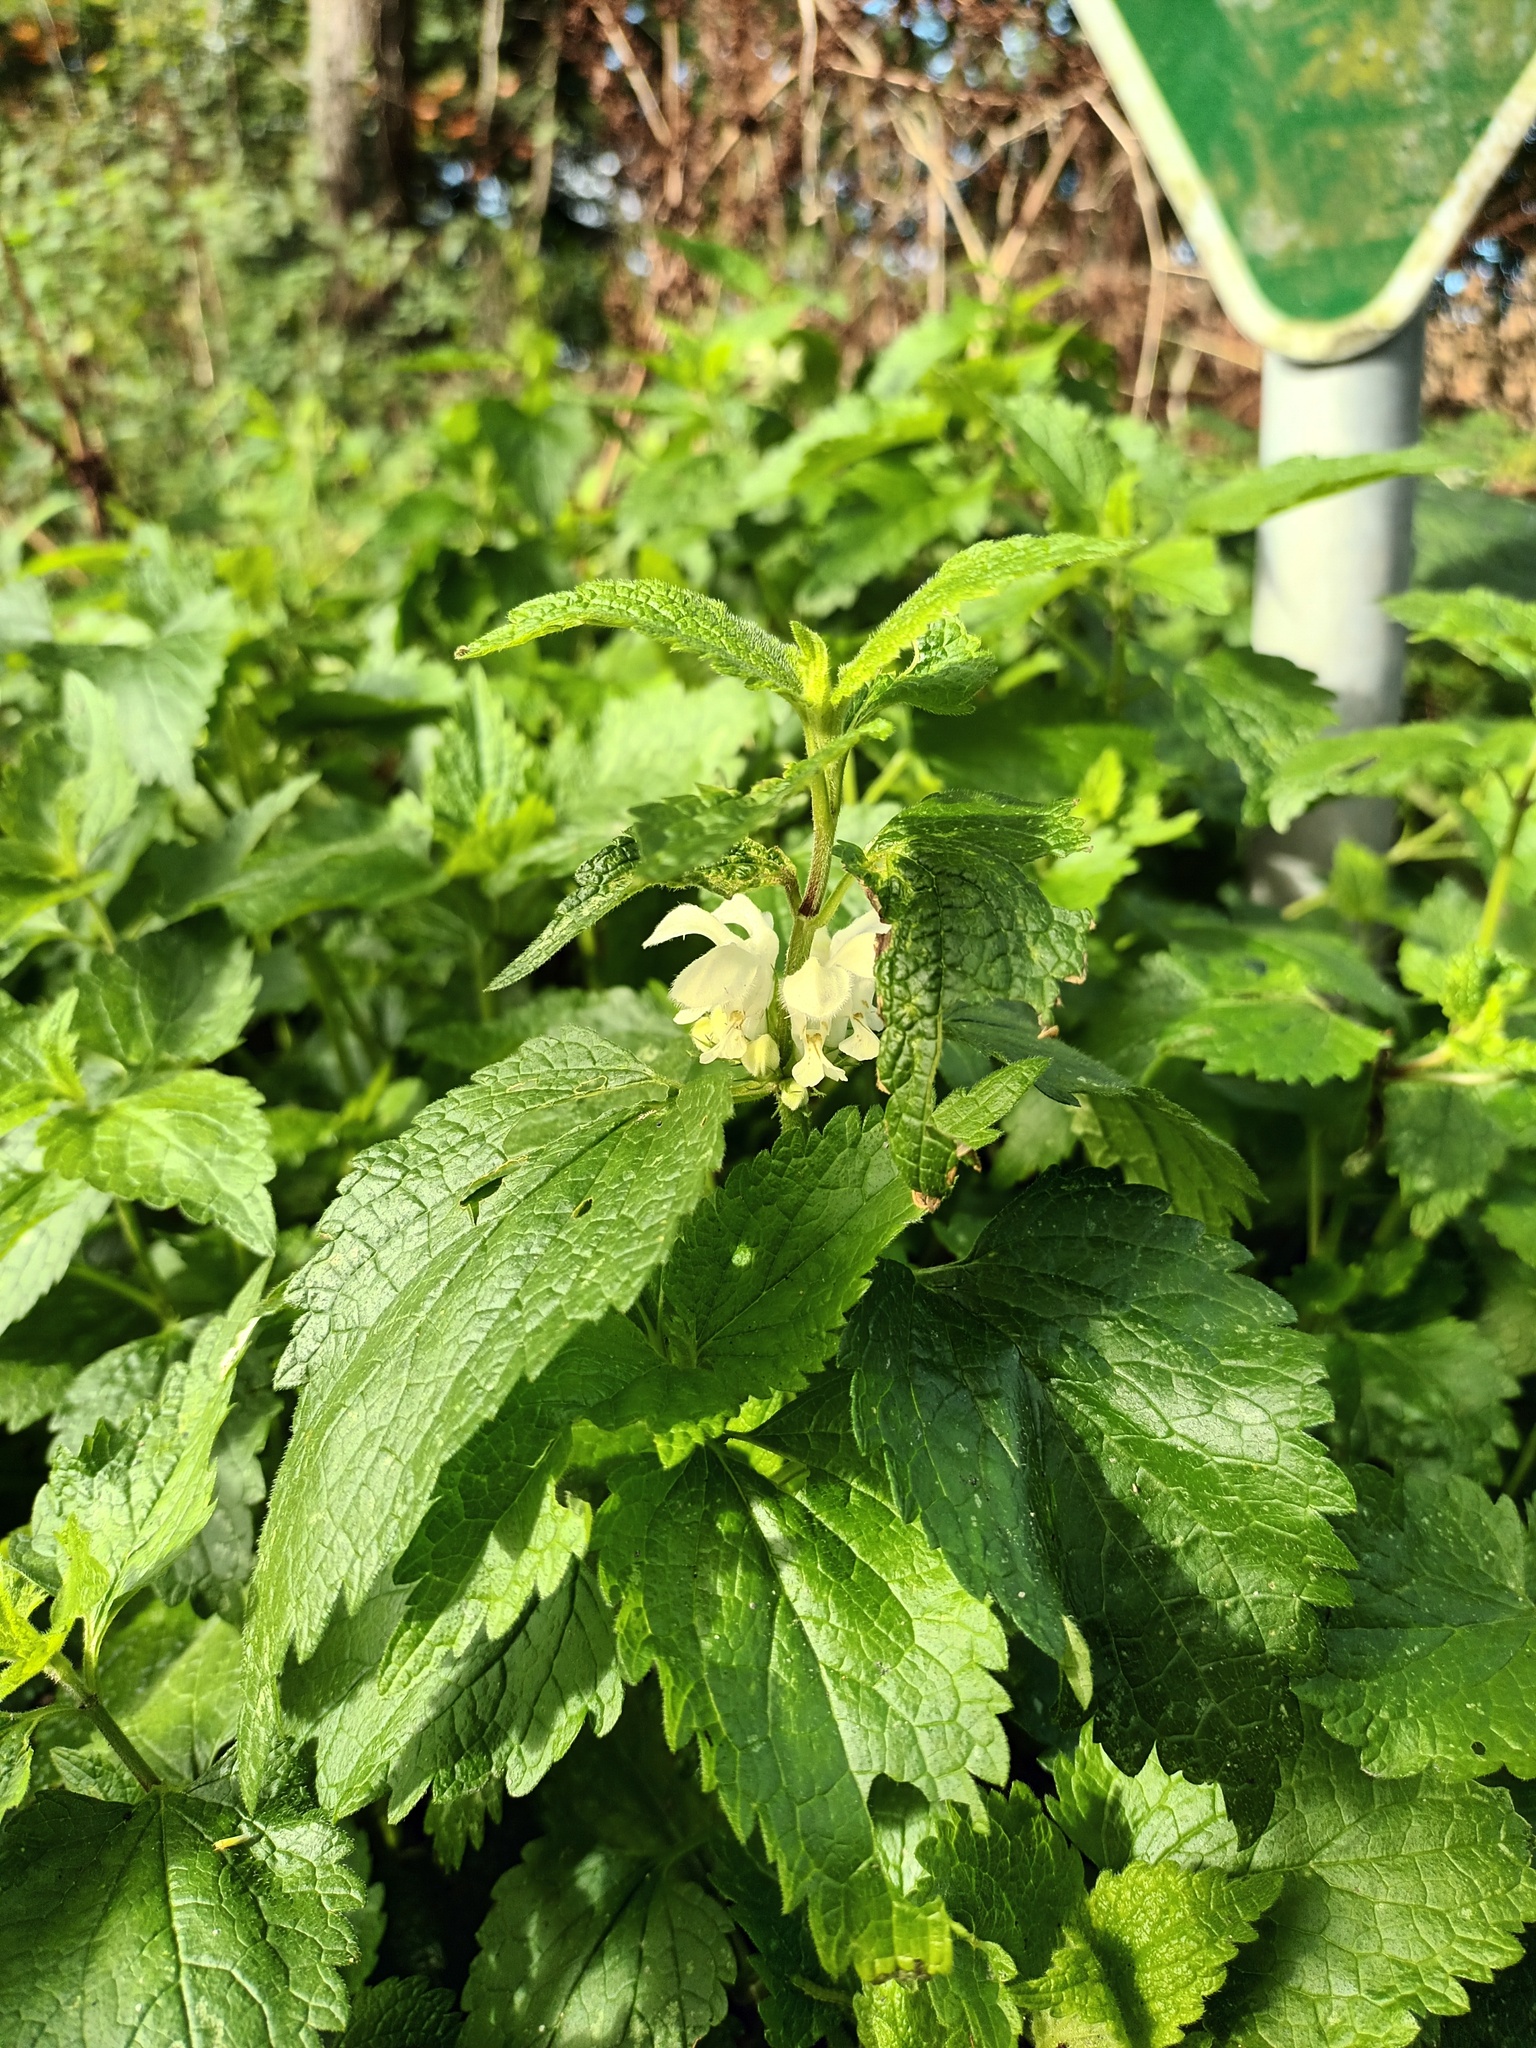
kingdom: Plantae
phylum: Tracheophyta
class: Magnoliopsida
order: Lamiales
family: Lamiaceae
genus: Lamium
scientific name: Lamium album
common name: White dead-nettle
